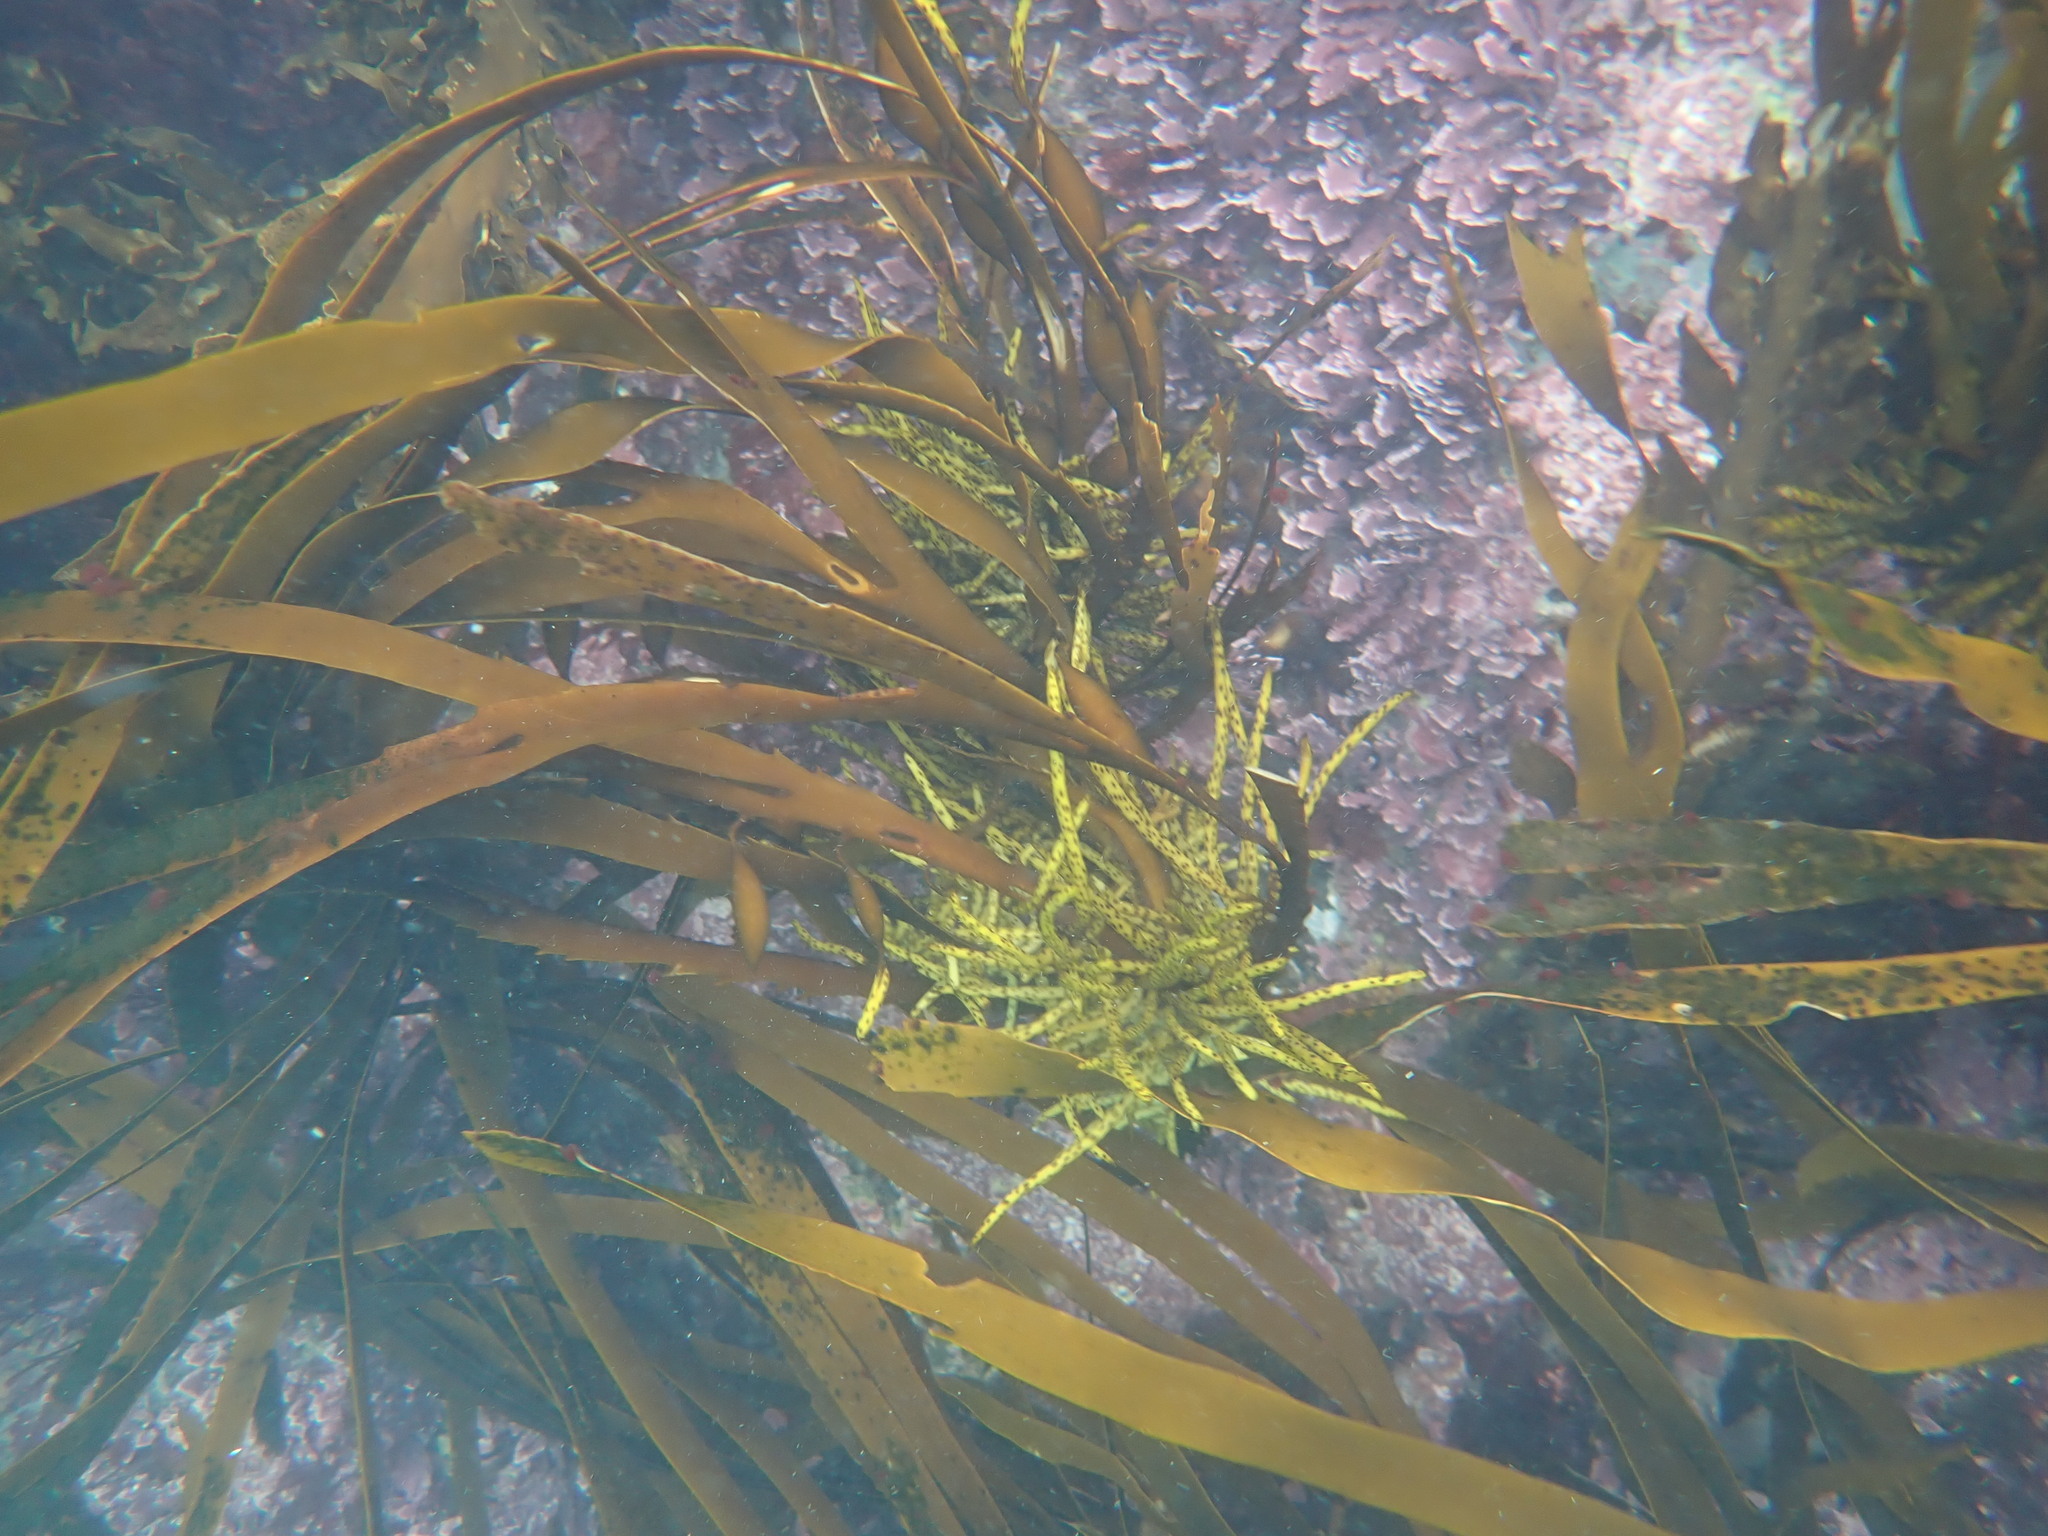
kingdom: Chromista
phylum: Ochrophyta
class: Phaeophyceae
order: Fucales
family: Seirococcaceae
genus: Marginariella
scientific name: Marginariella boryana
